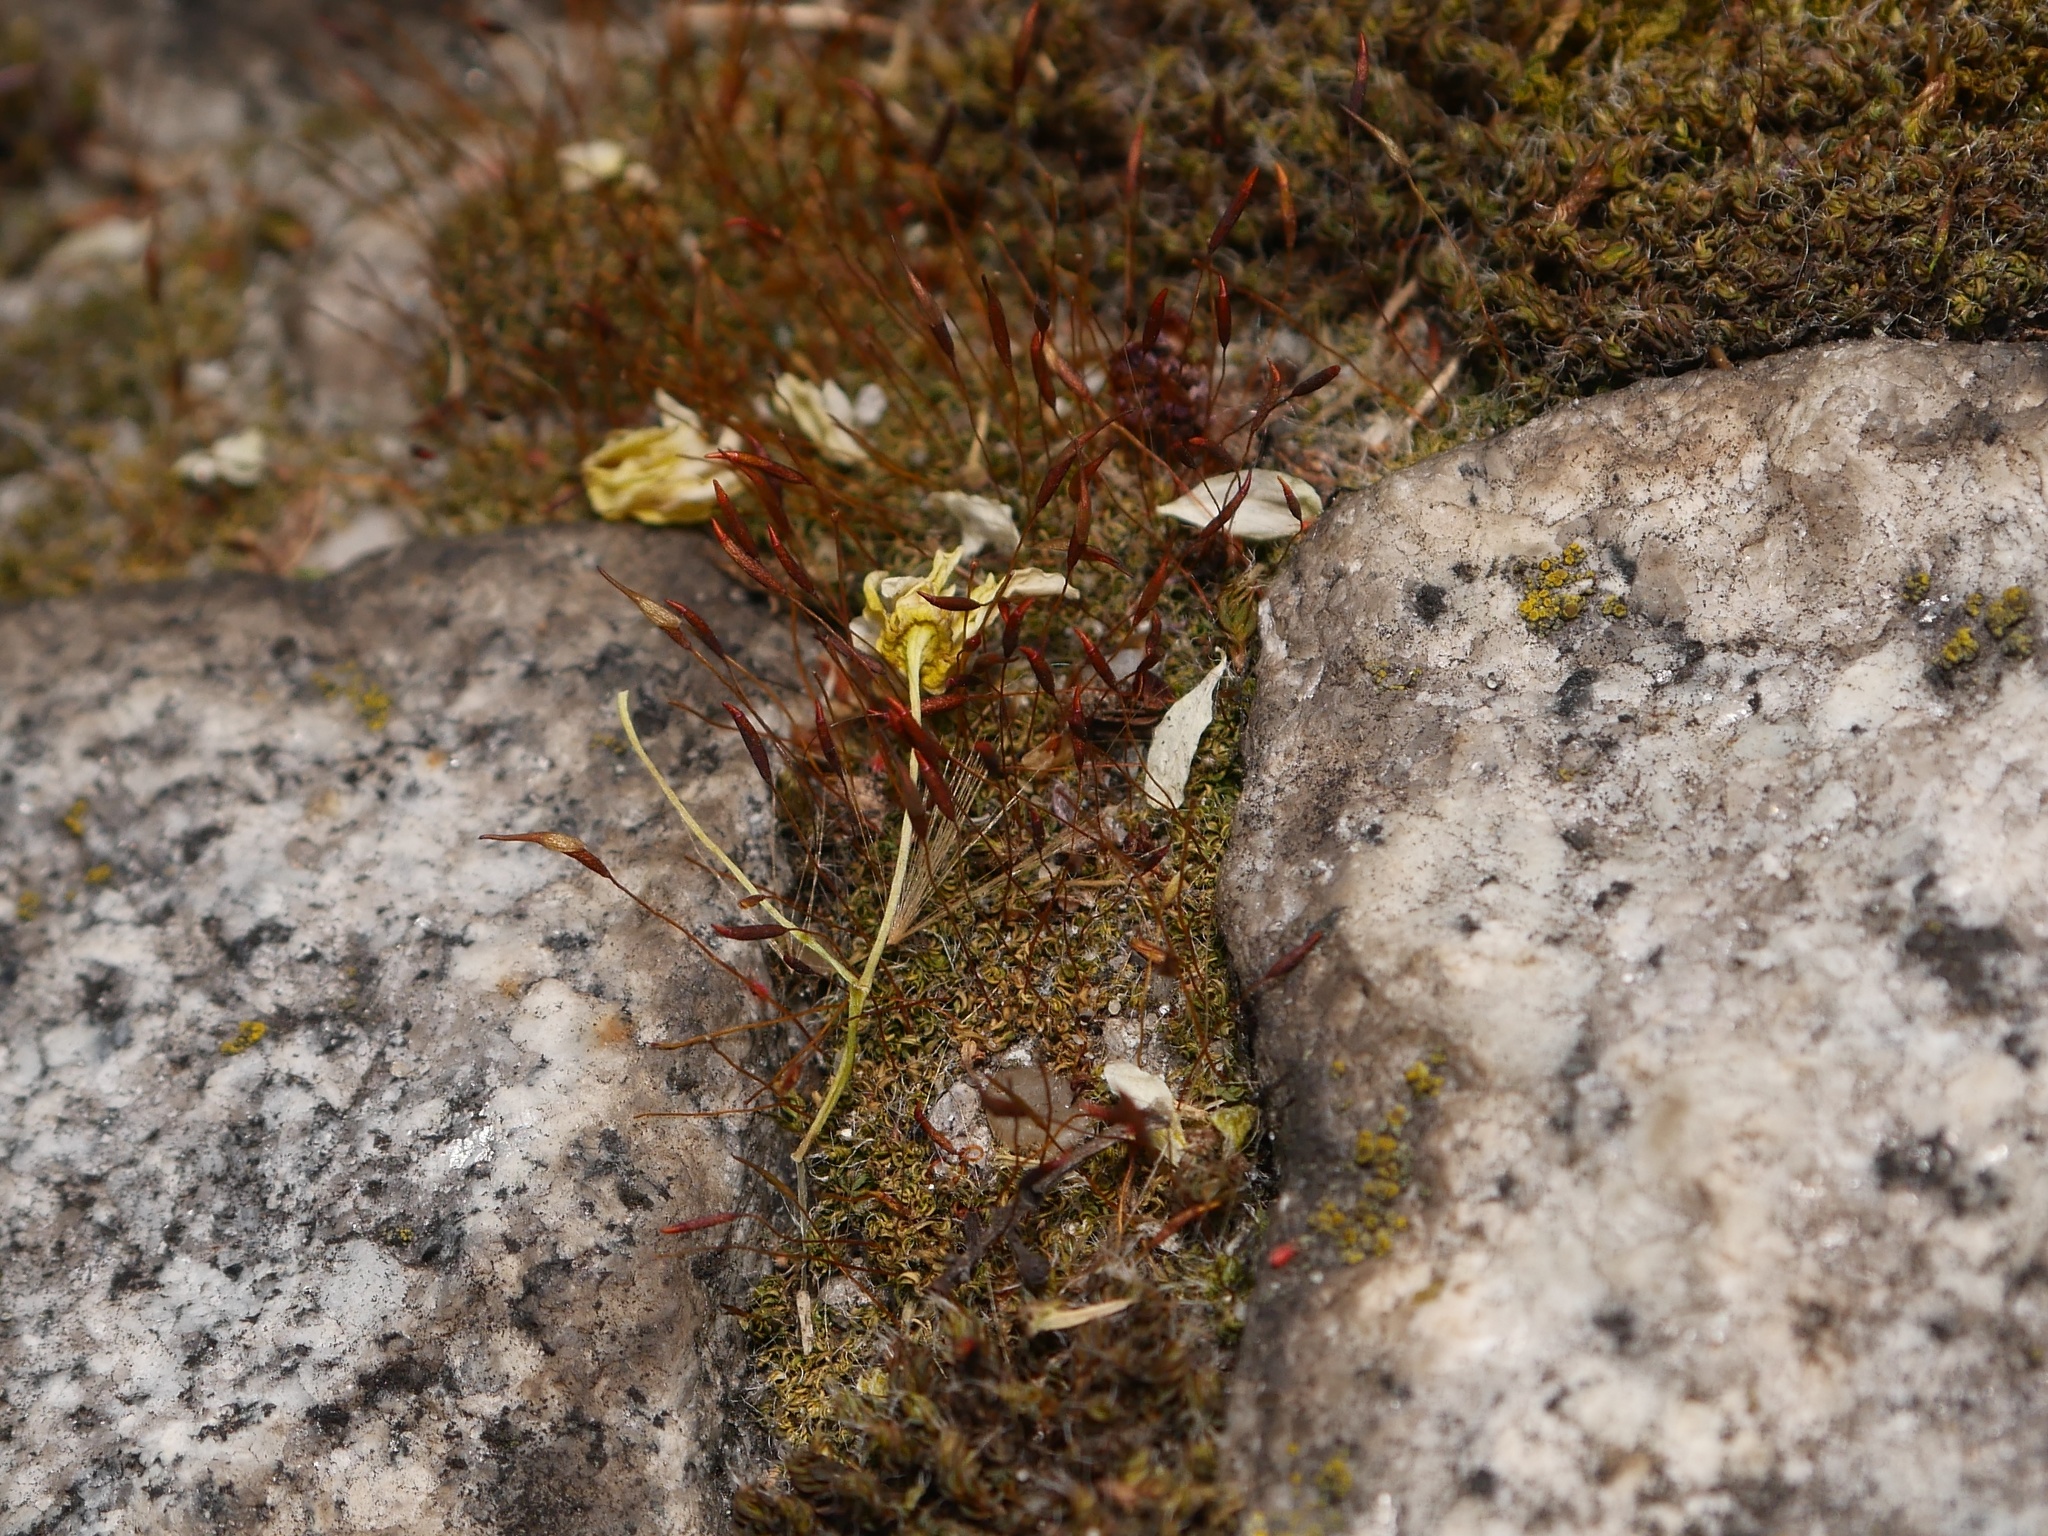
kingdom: Plantae
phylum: Bryophyta
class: Bryopsida
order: Pottiales
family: Pottiaceae
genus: Tortula
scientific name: Tortula muralis
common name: Wall screw-moss
